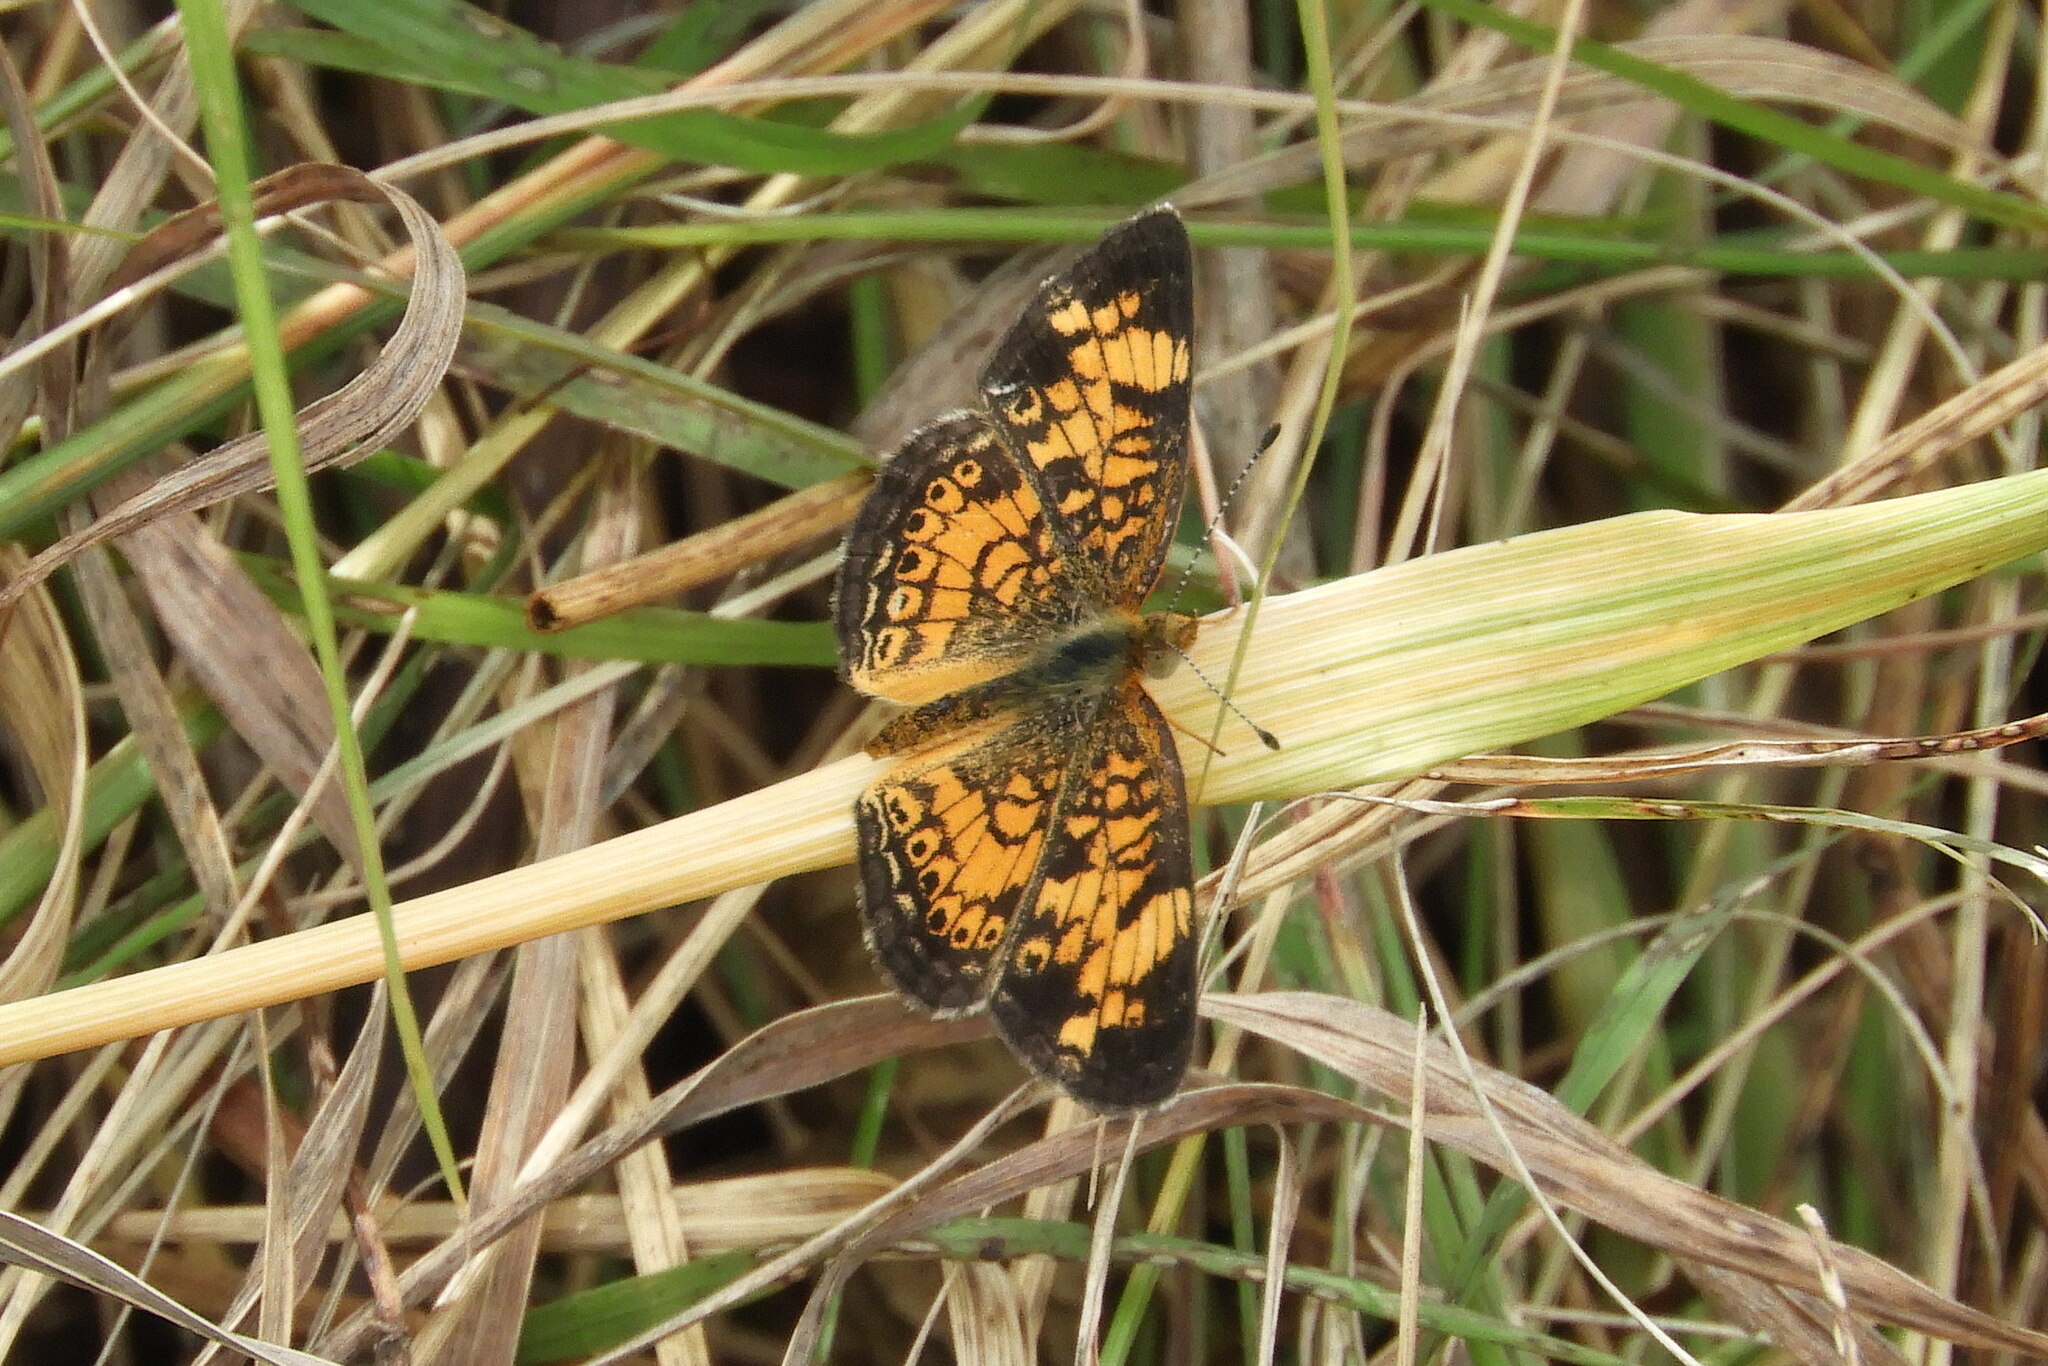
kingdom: Animalia
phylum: Arthropoda
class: Insecta
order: Lepidoptera
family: Nymphalidae
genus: Phyciodes
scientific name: Phyciodes tharos
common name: Pearl crescent
